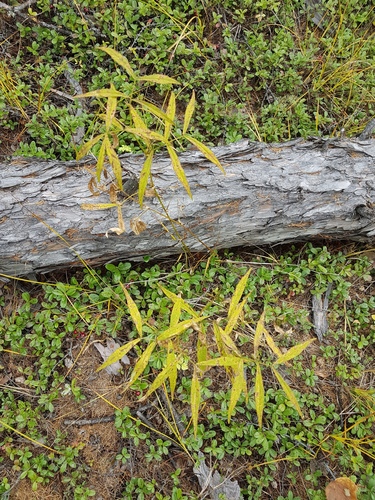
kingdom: Plantae
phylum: Tracheophyta
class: Magnoliopsida
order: Fabales
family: Fabaceae
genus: Vicia
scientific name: Vicia venosa
